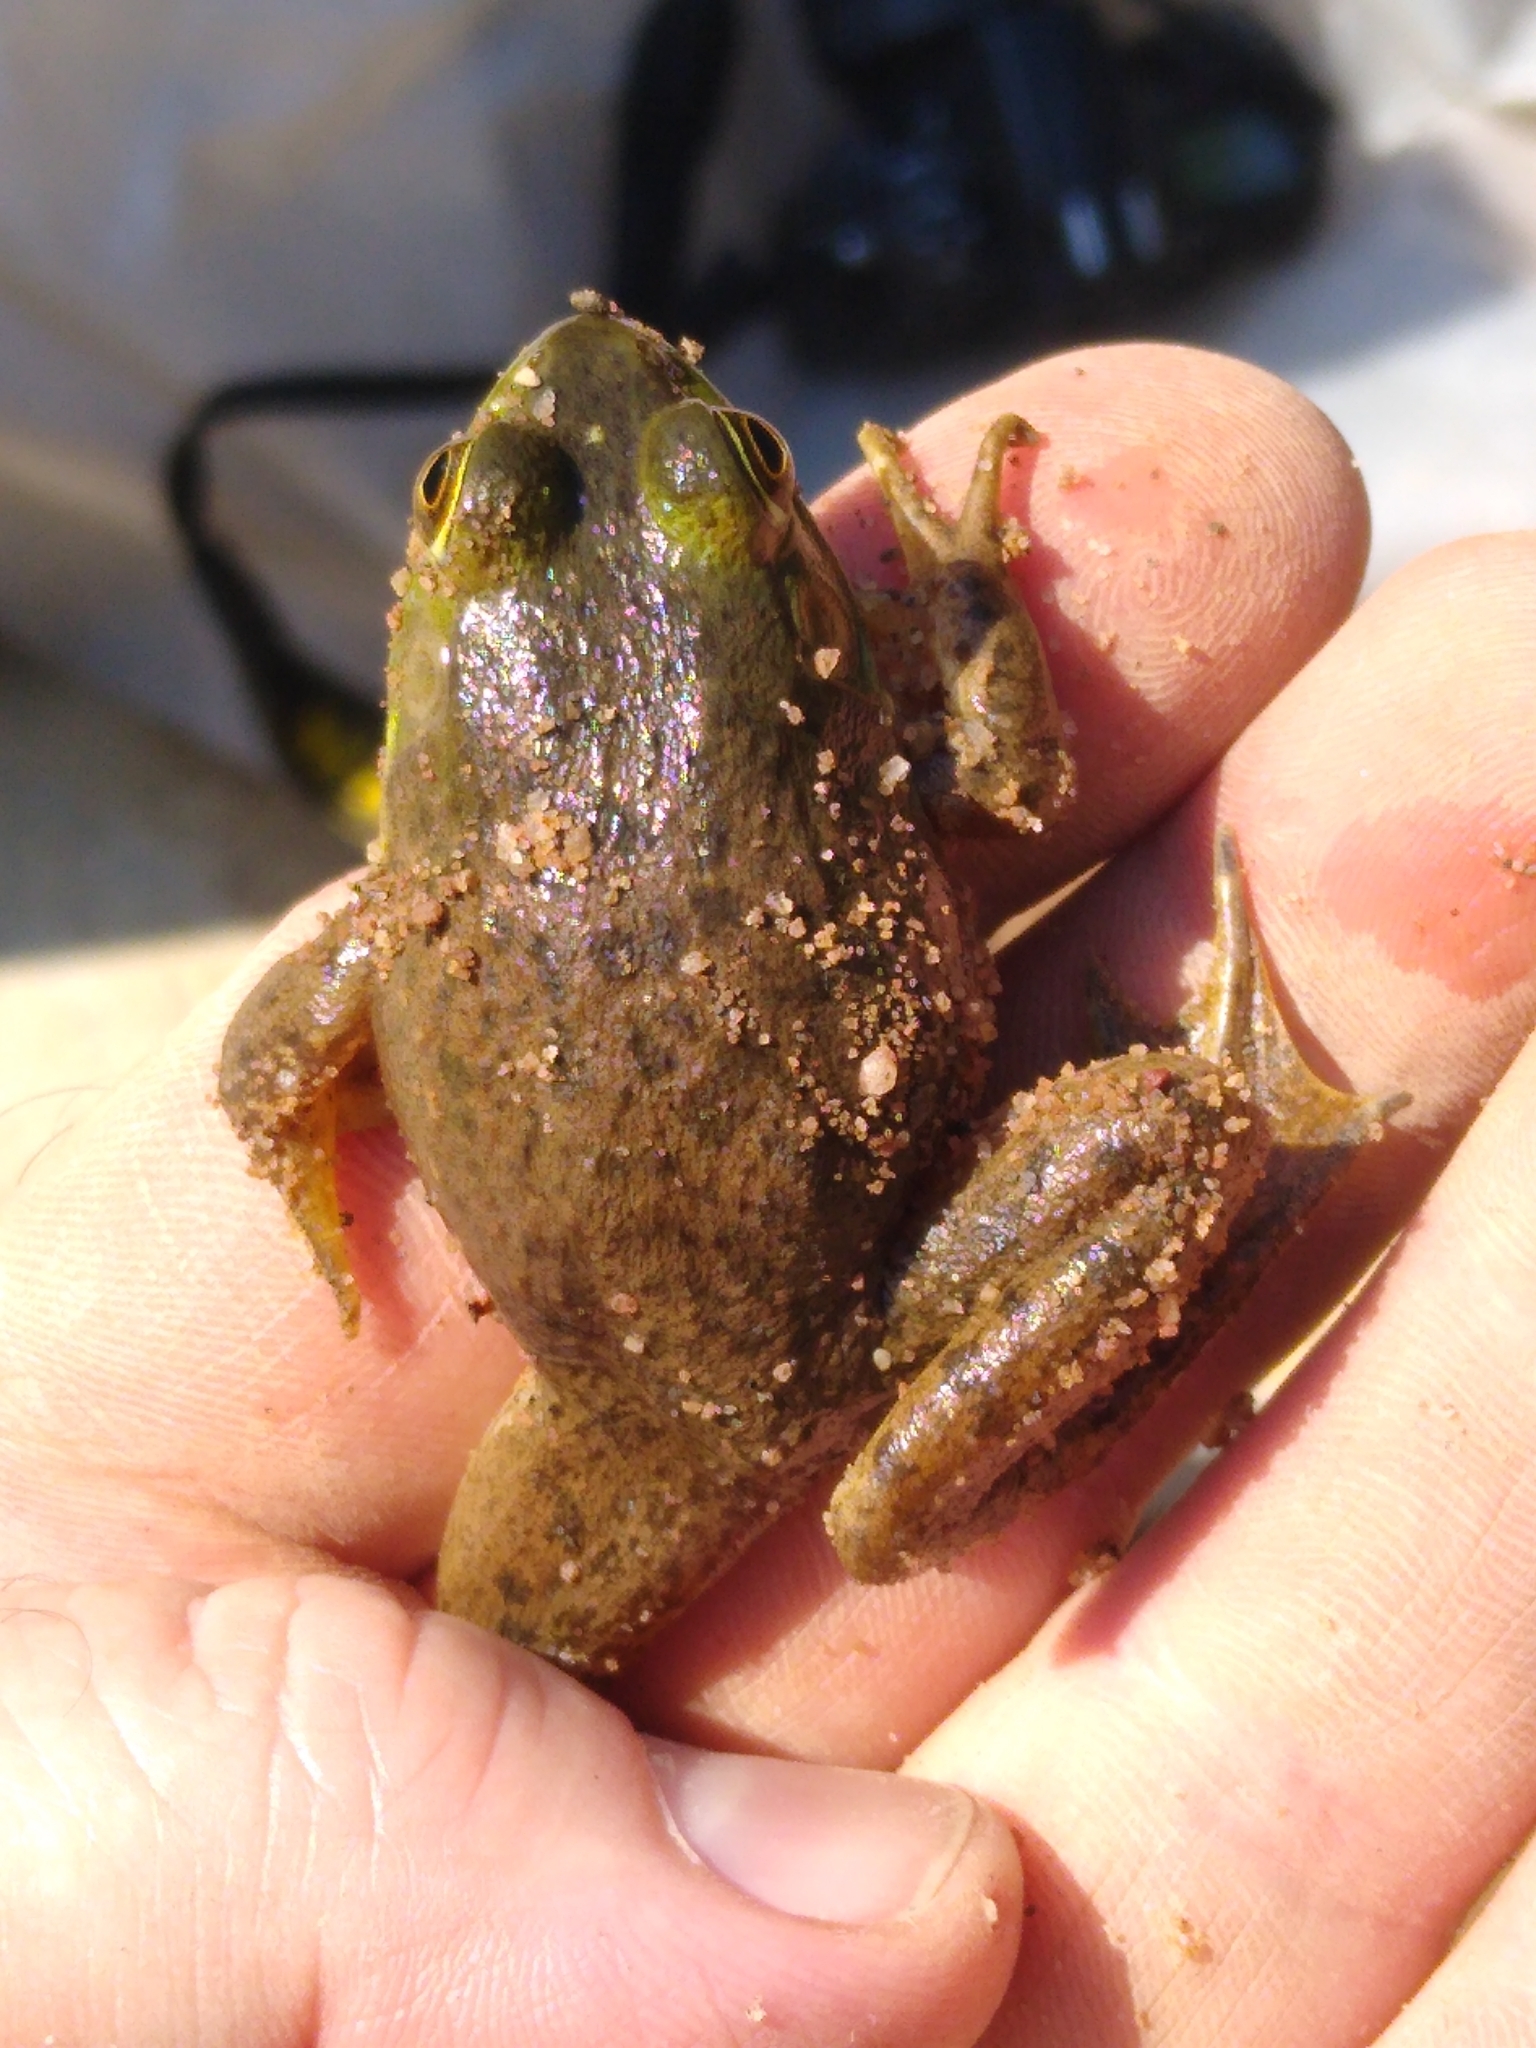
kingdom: Animalia
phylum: Chordata
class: Amphibia
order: Anura
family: Ranidae
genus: Lithobates
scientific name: Lithobates catesbeianus
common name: American bullfrog
